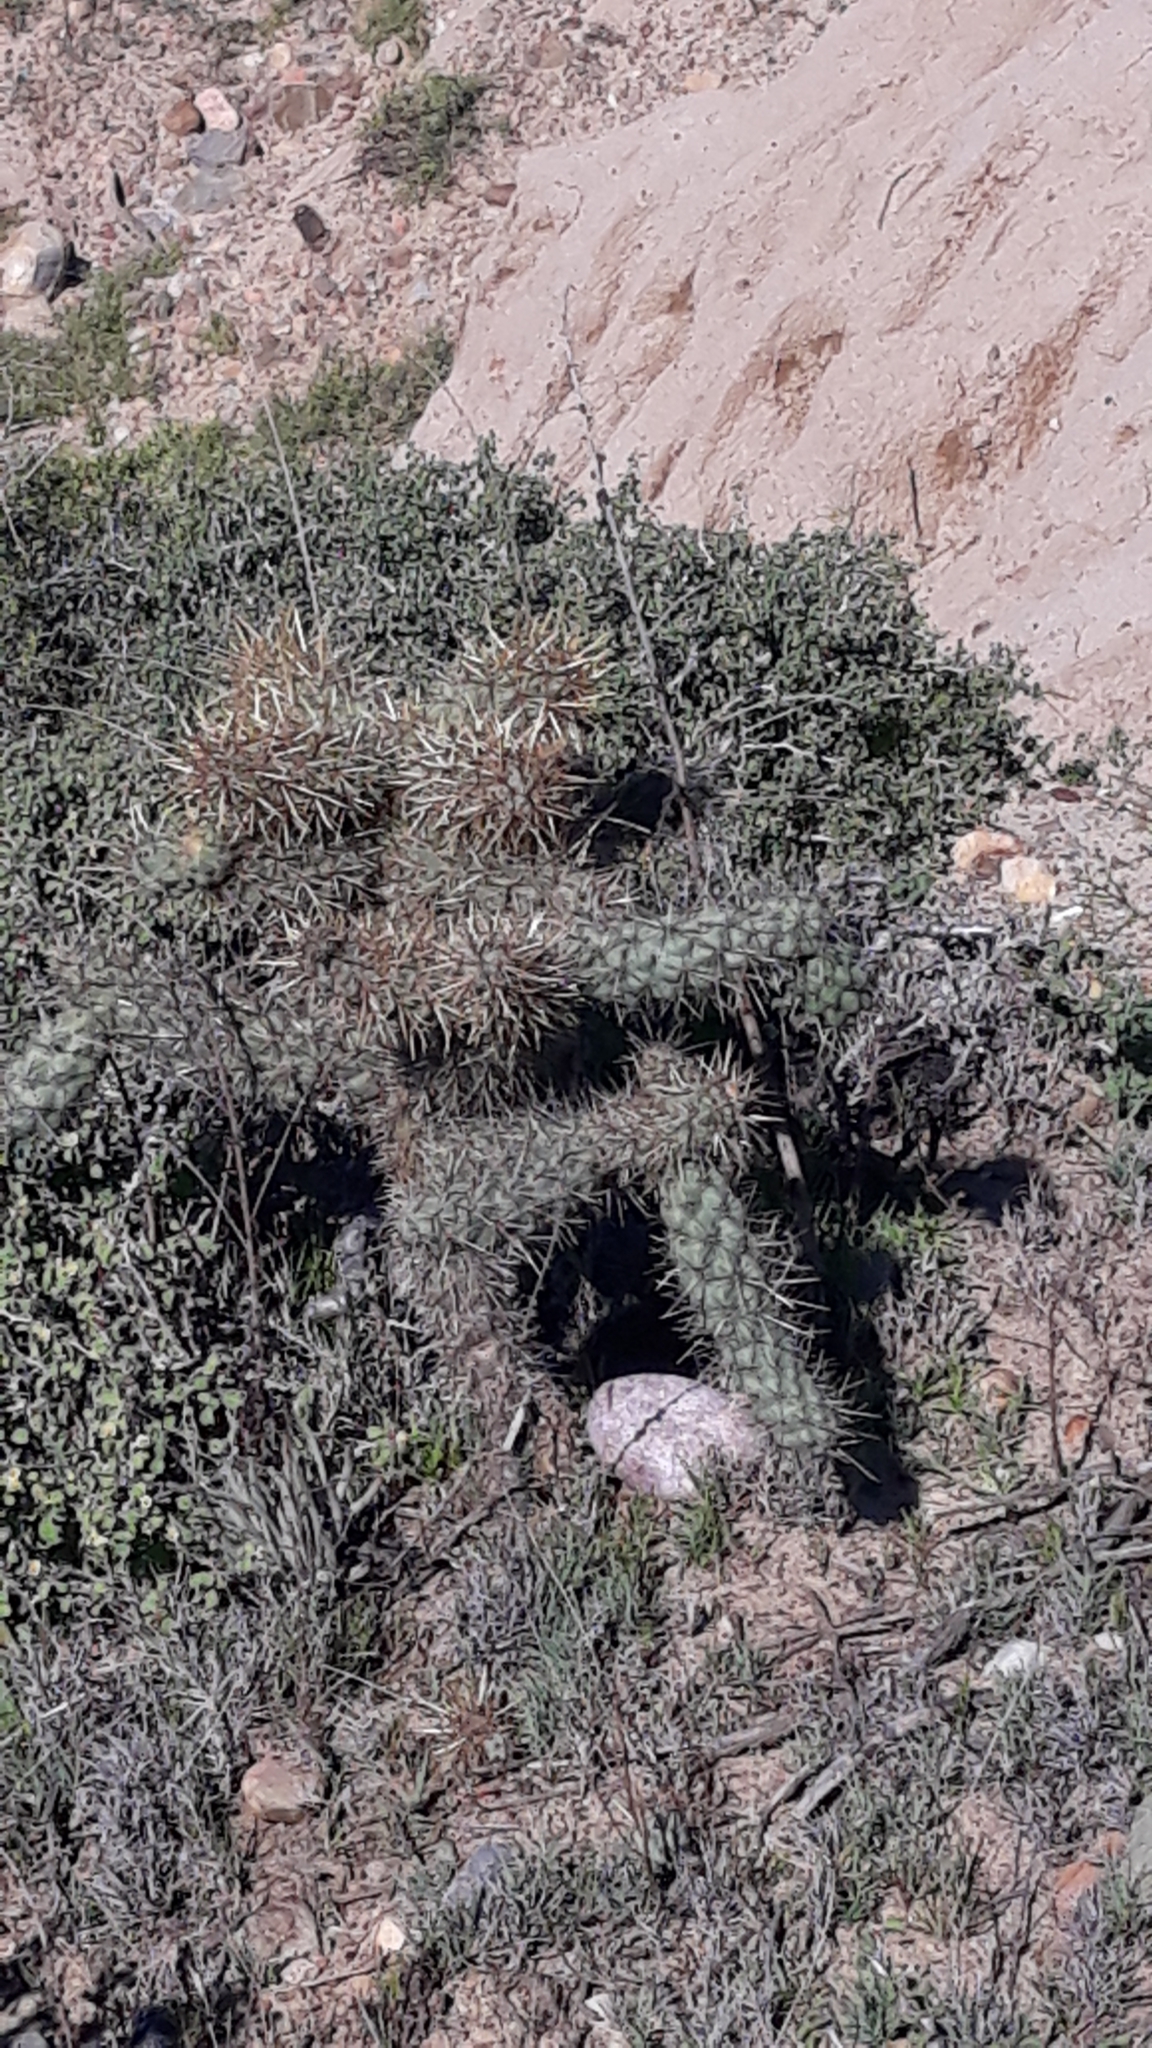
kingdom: Plantae
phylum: Tracheophyta
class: Magnoliopsida
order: Caryophyllales
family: Cactaceae
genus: Cylindropuntia
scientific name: Cylindropuntia prolifera
